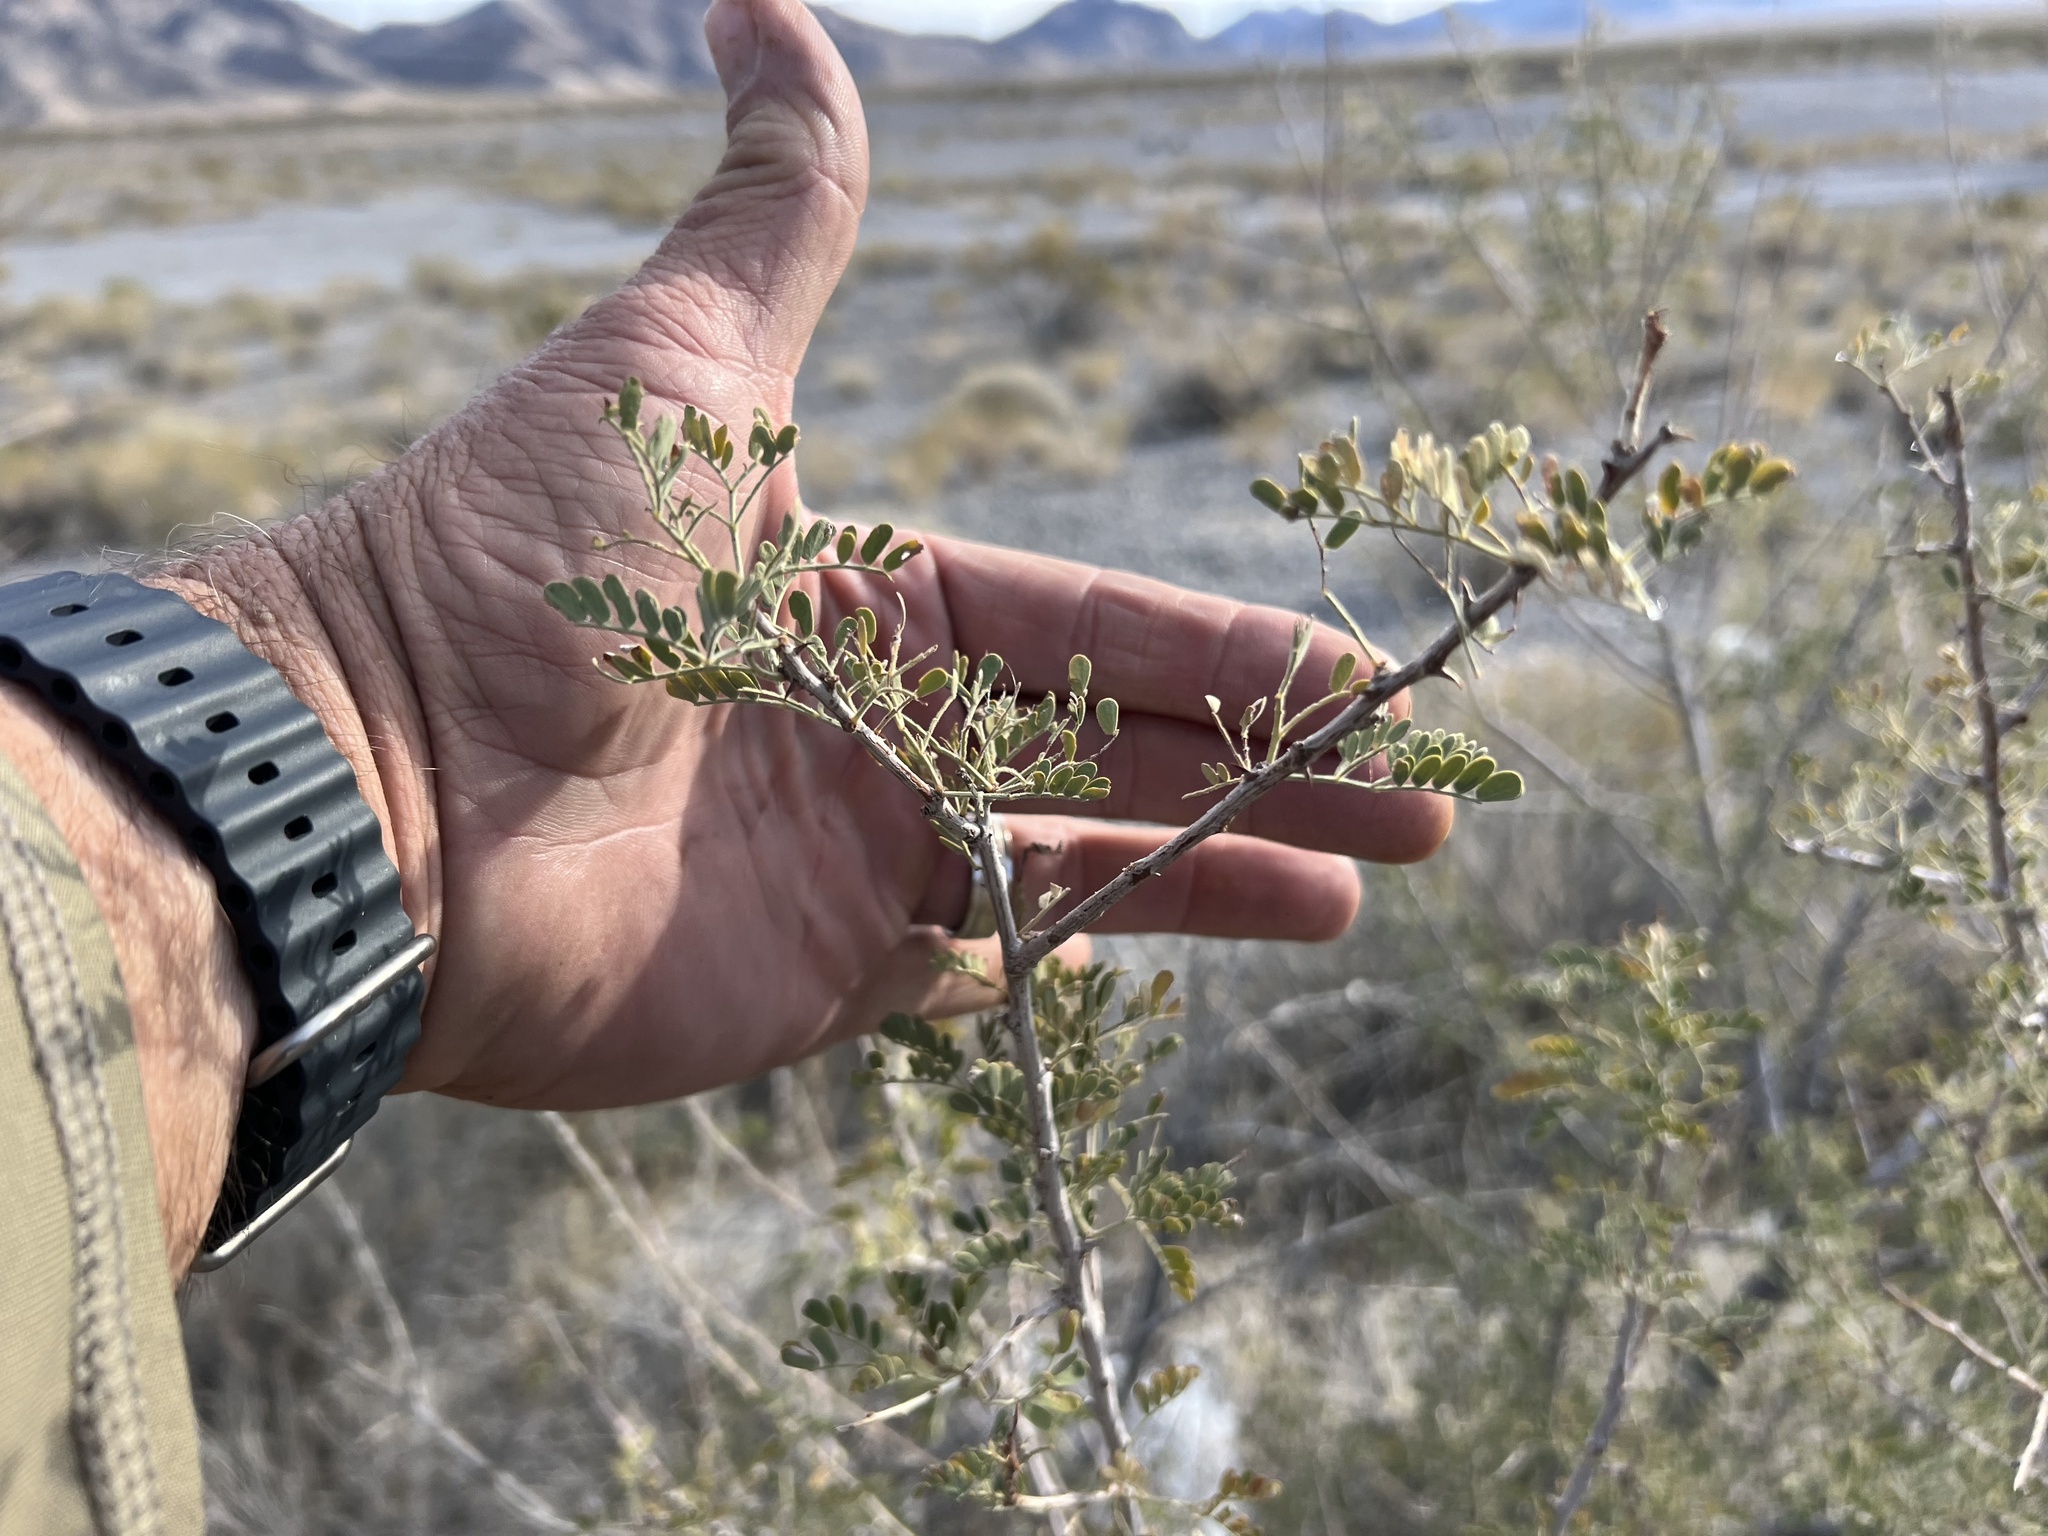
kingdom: Plantae
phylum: Tracheophyta
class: Magnoliopsida
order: Fabales
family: Fabaceae
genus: Senegalia
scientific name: Senegalia greggii
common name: Texas-mimosa
